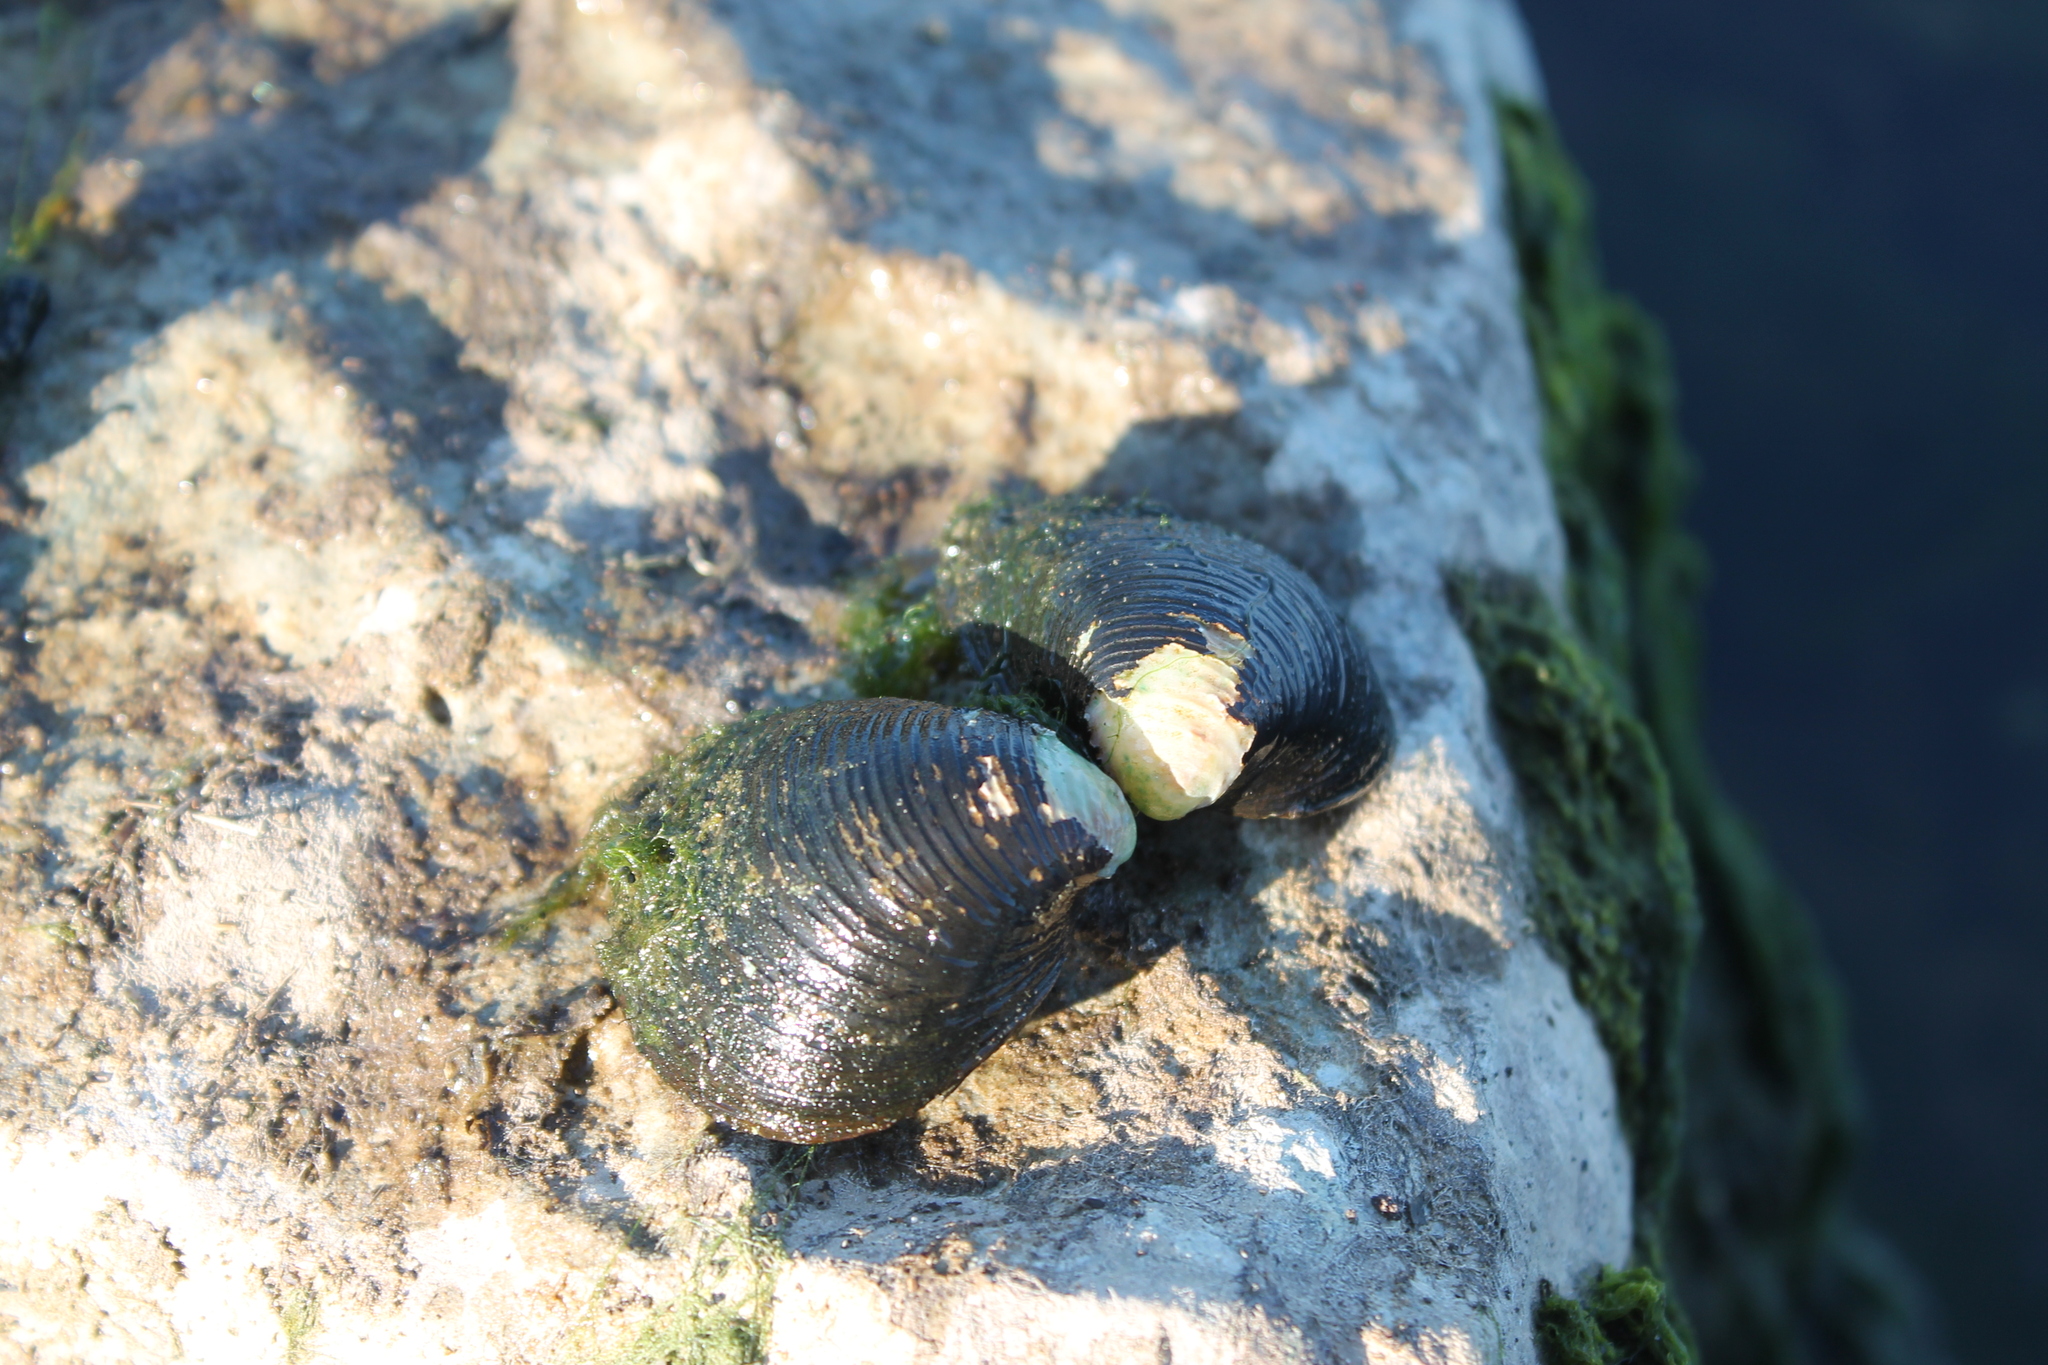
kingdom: Animalia
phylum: Mollusca
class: Bivalvia
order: Venerida
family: Cyrenidae
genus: Corbicula
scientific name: Corbicula fluminea
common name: Asian clam
